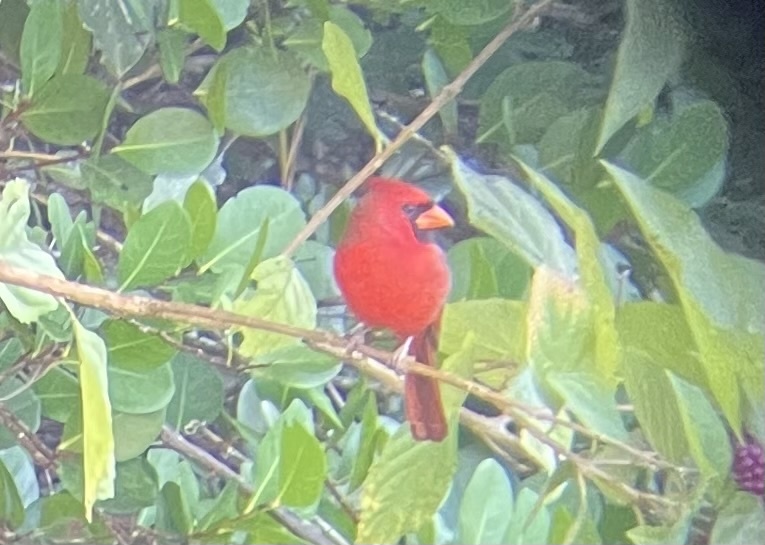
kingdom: Animalia
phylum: Chordata
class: Aves
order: Passeriformes
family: Cardinalidae
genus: Cardinalis
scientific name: Cardinalis cardinalis
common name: Northern cardinal
